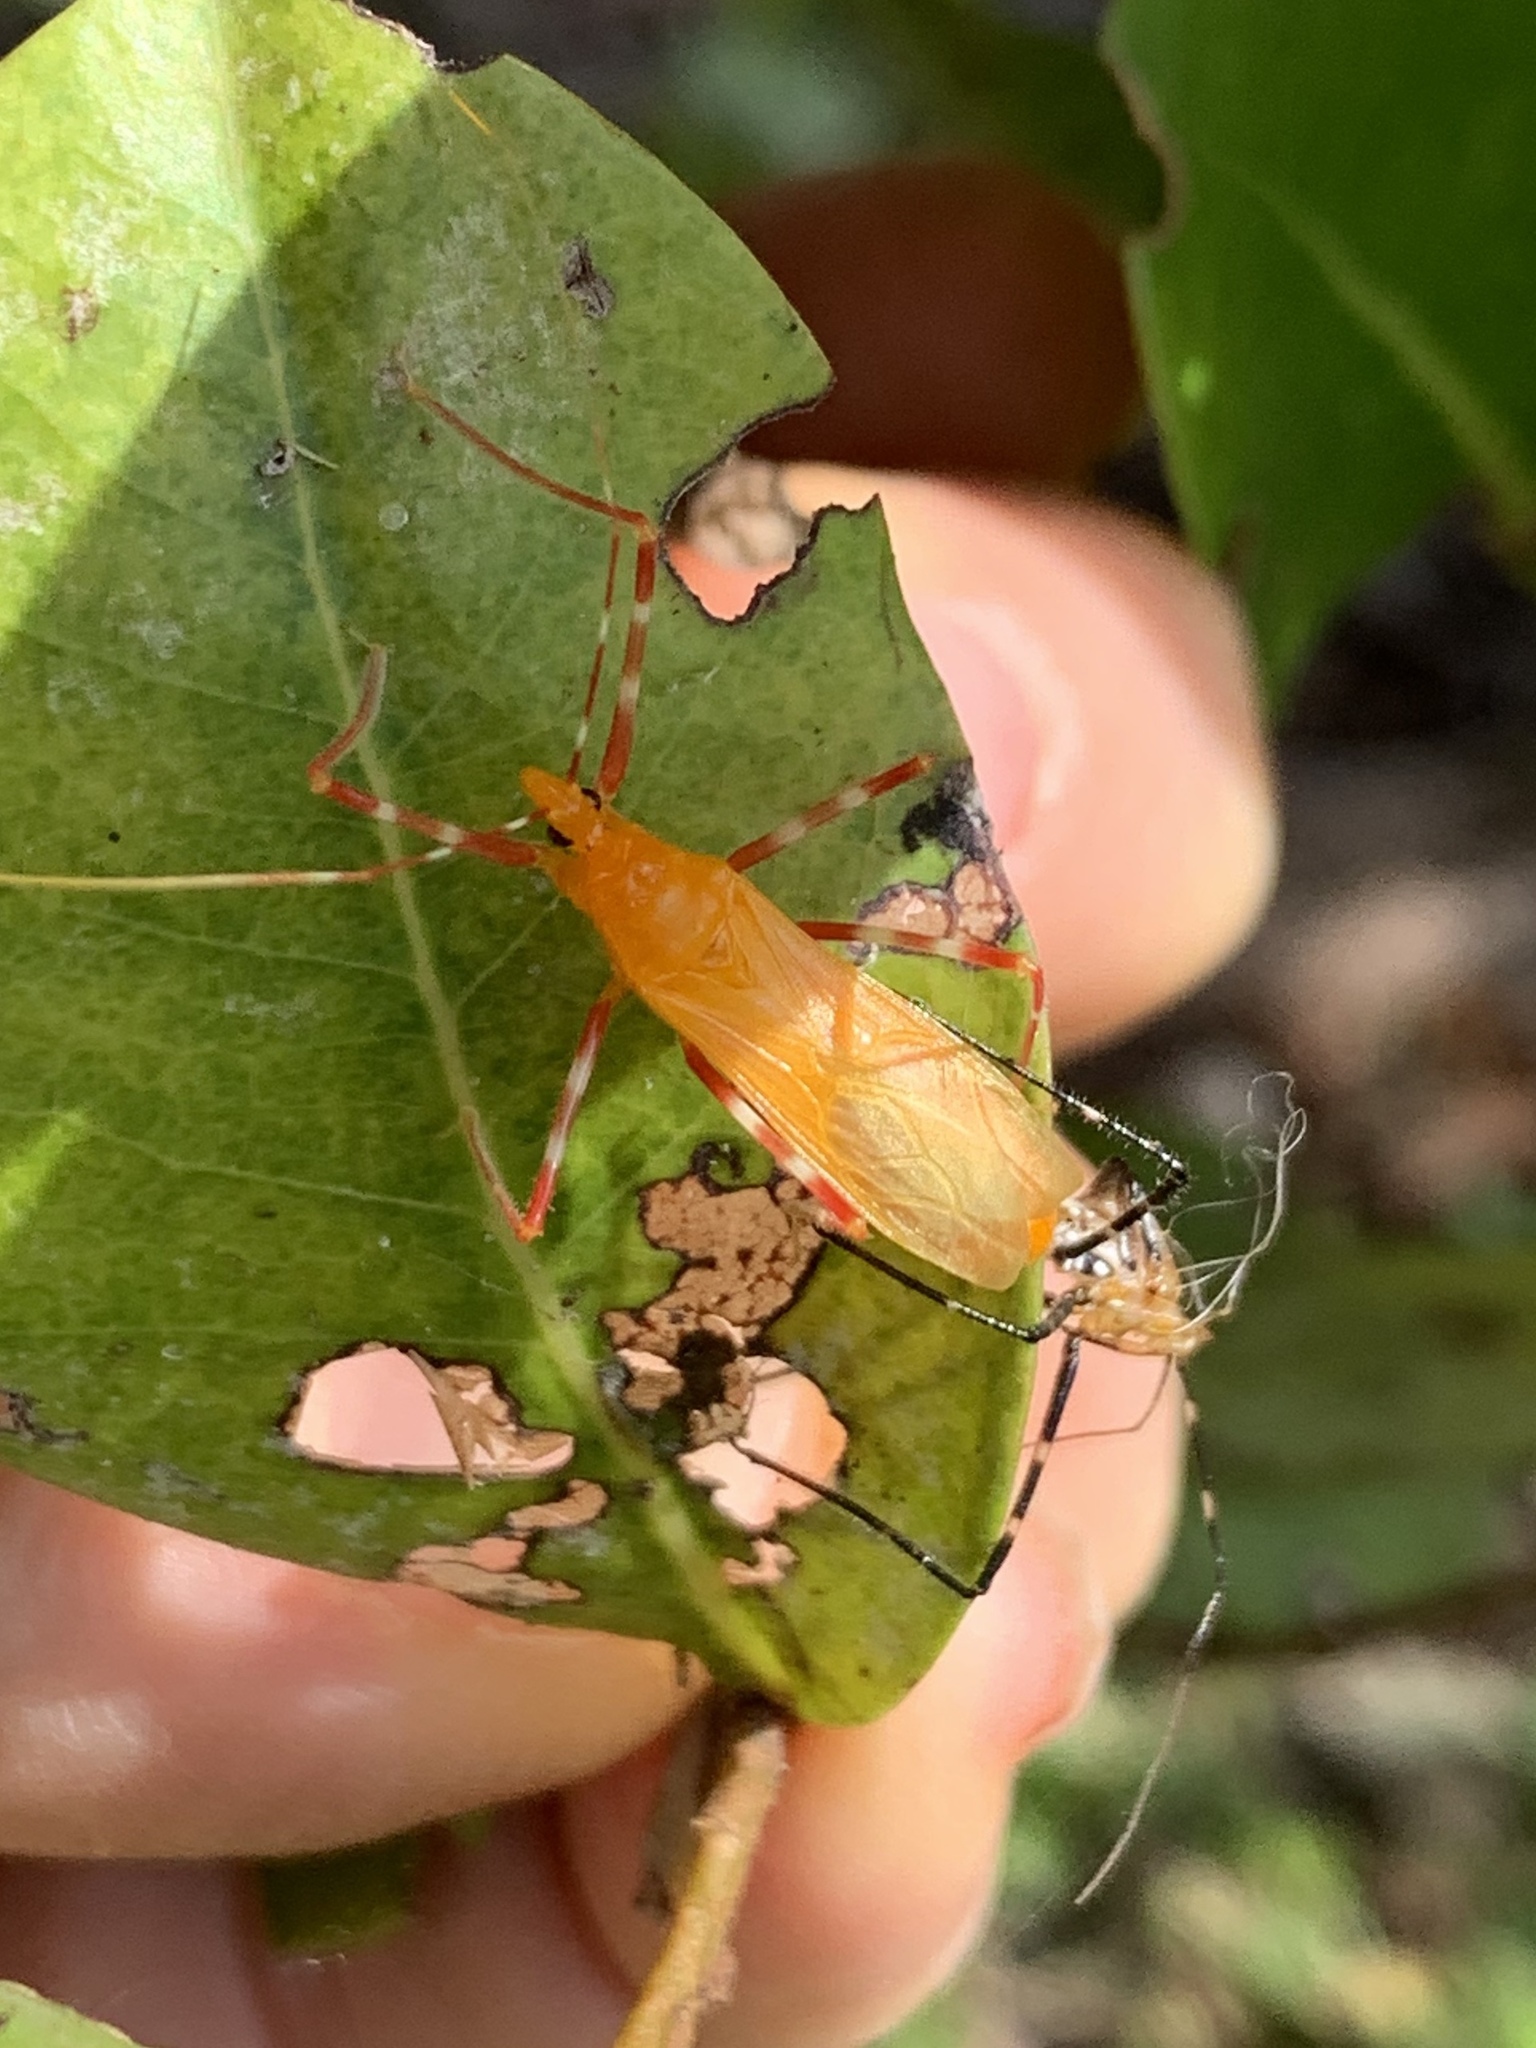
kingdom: Animalia
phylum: Arthropoda
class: Insecta
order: Hemiptera
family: Reduviidae
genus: Zelus
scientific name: Zelus longipes
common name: Milkweed assassin bug
